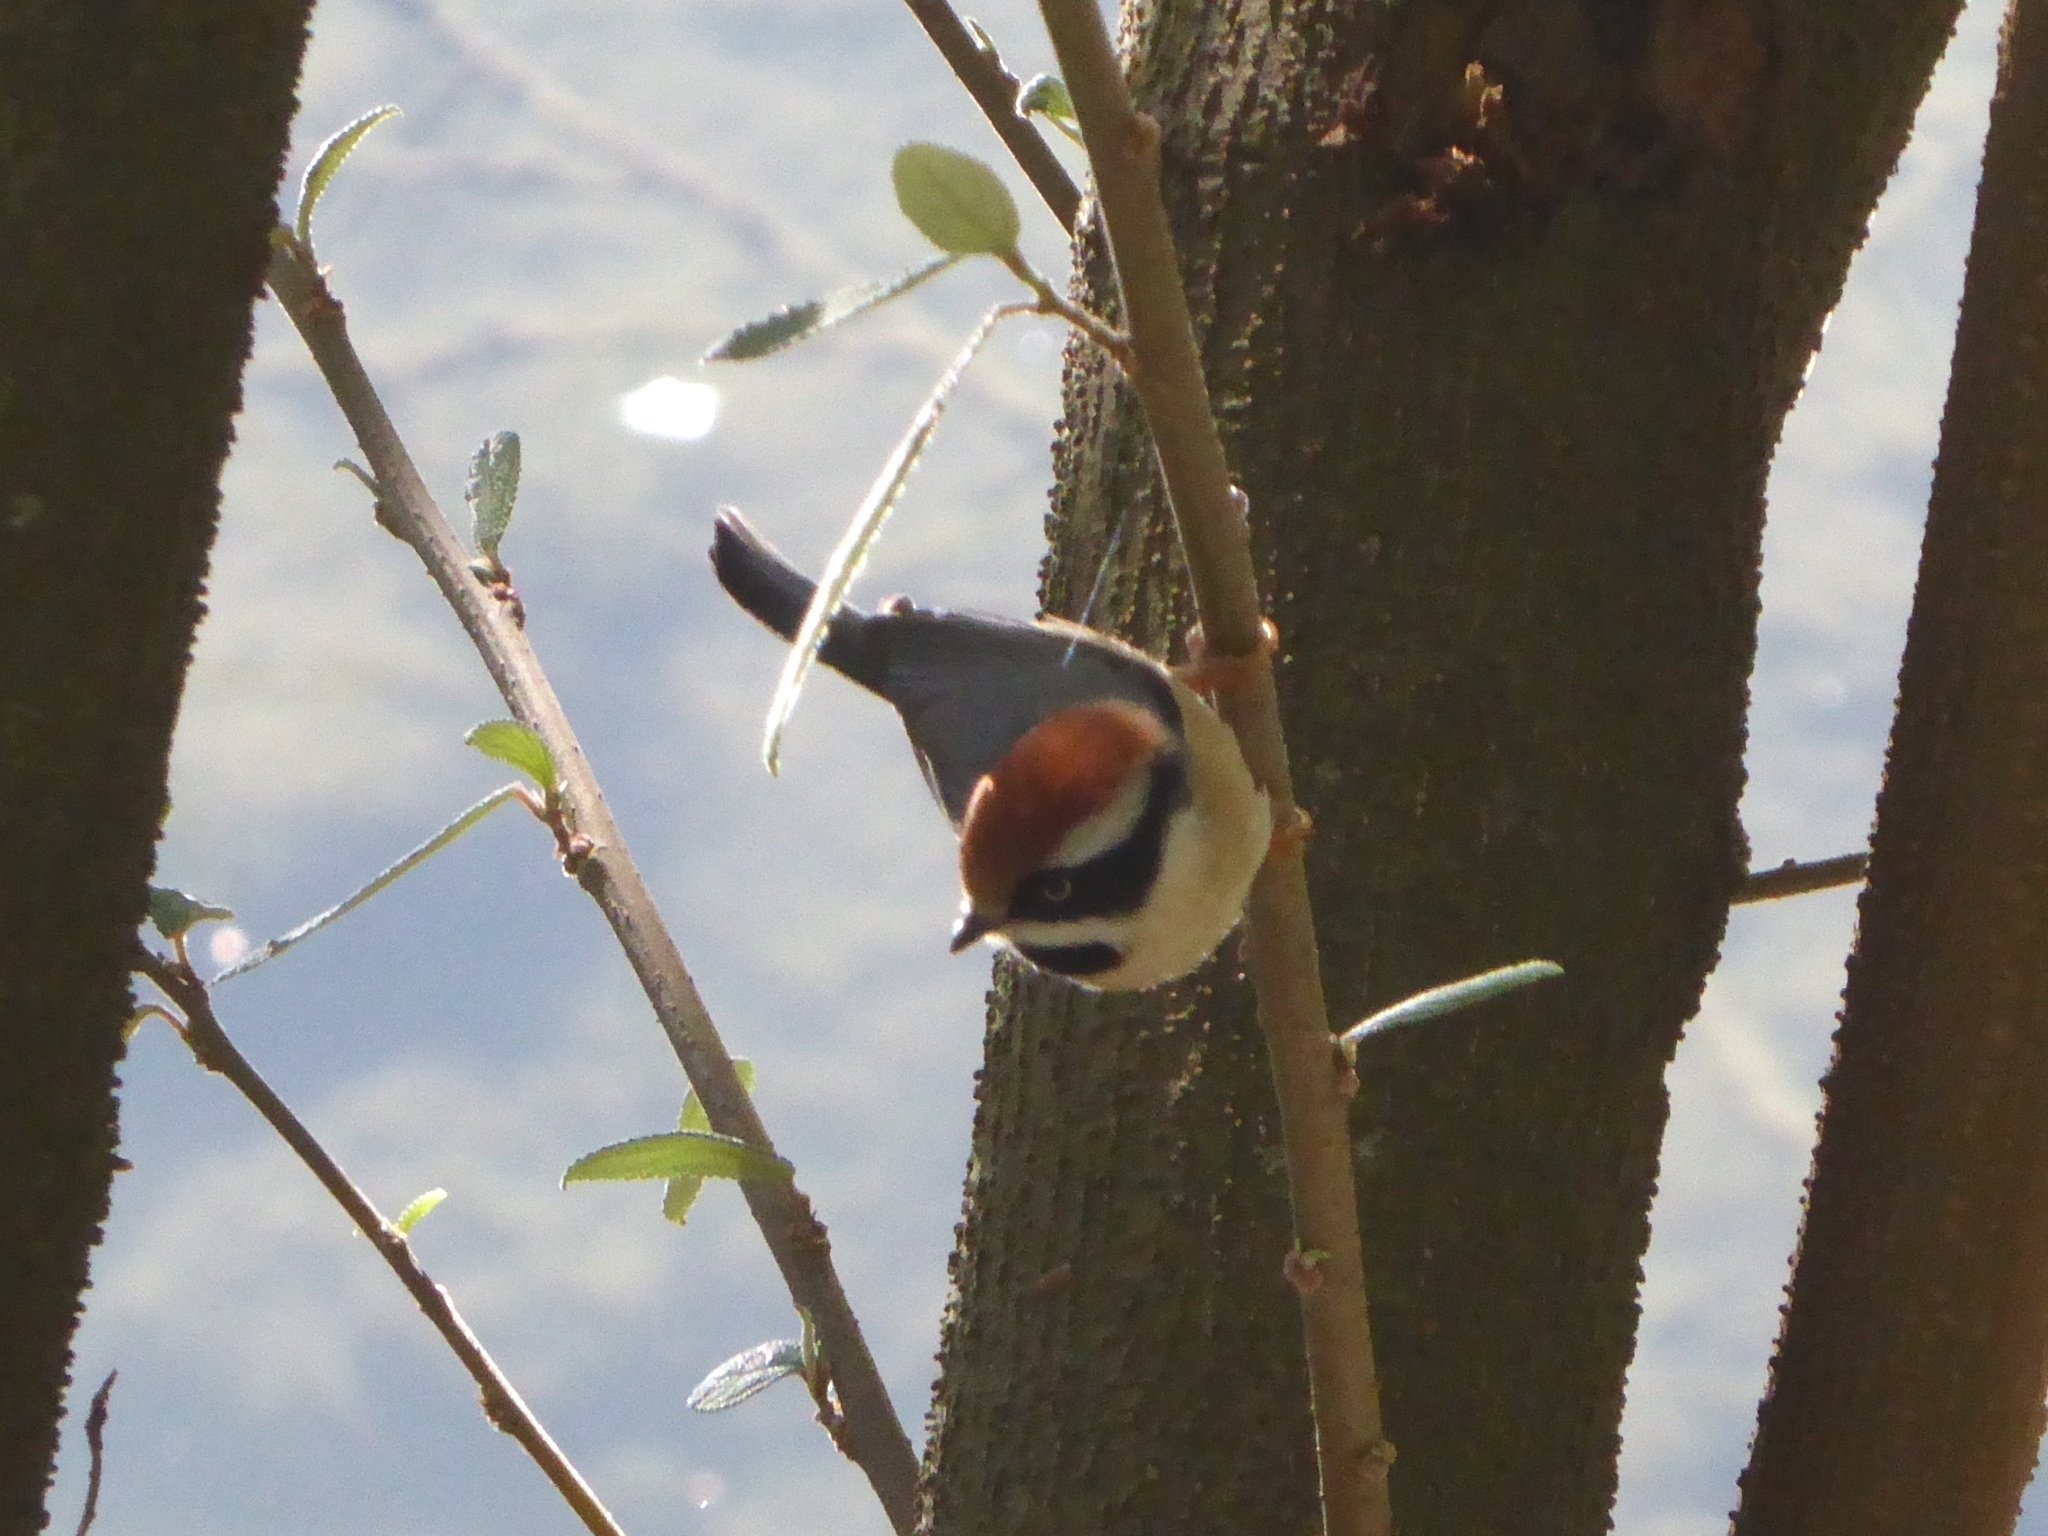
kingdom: Animalia
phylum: Chordata
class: Aves
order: Passeriformes
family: Aegithalidae
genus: Aegithalos
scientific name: Aegithalos concinnus
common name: Black-throated bushtit
